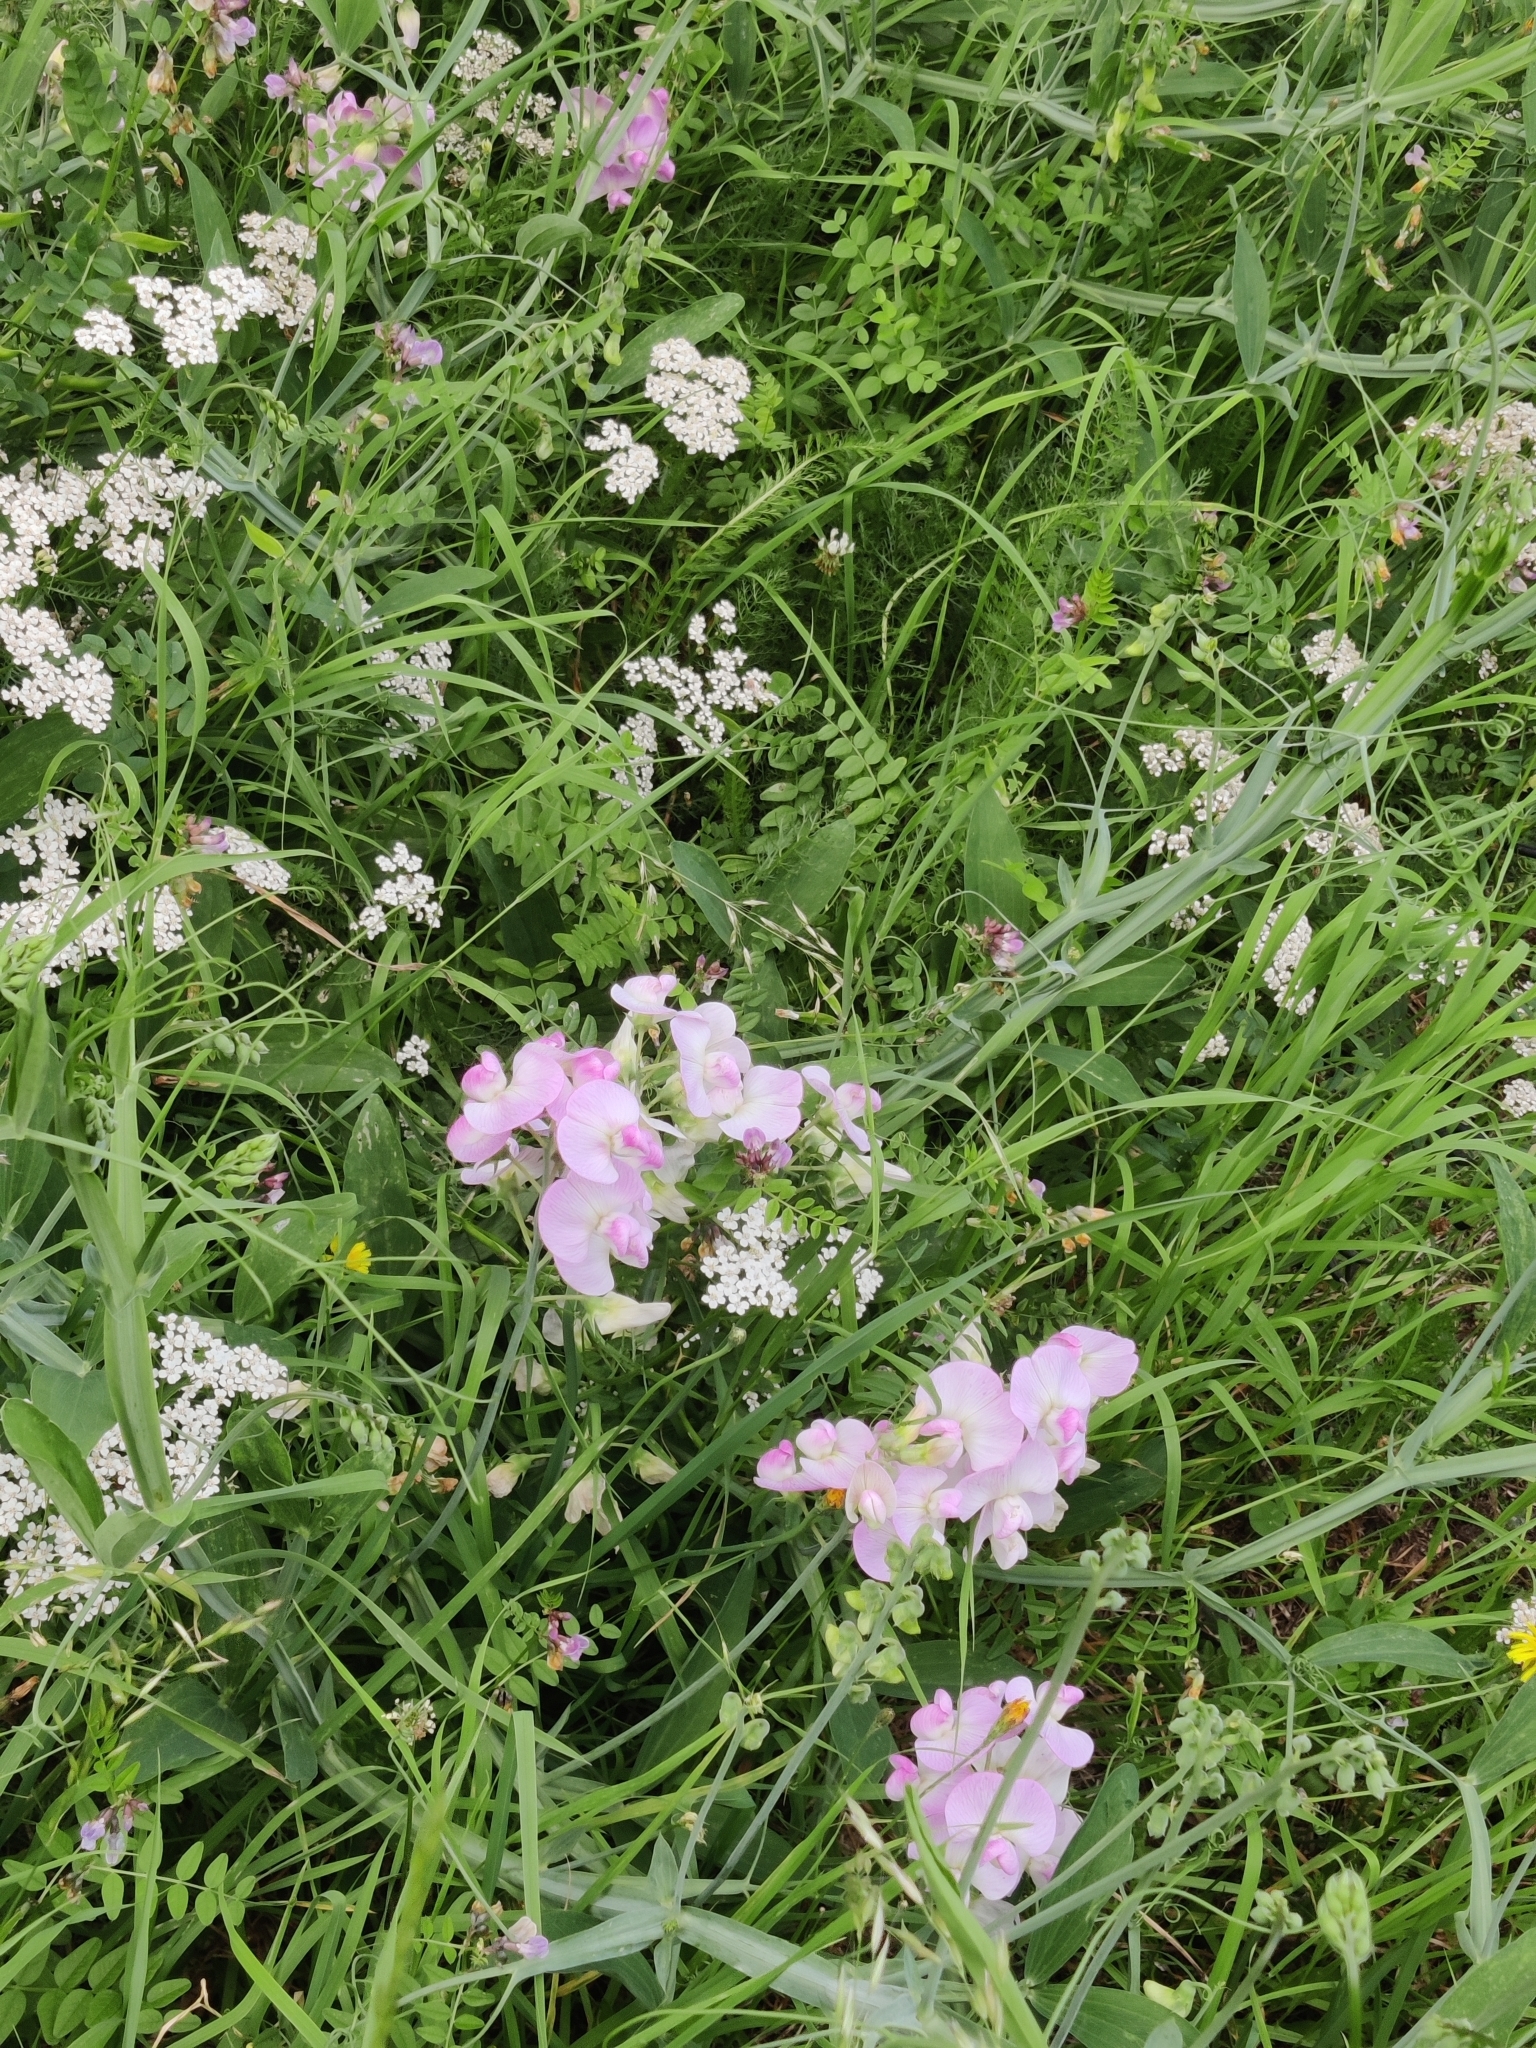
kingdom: Plantae
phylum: Tracheophyta
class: Magnoliopsida
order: Fabales
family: Fabaceae
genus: Lathyrus
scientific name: Lathyrus latifolius
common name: Perennial pea
